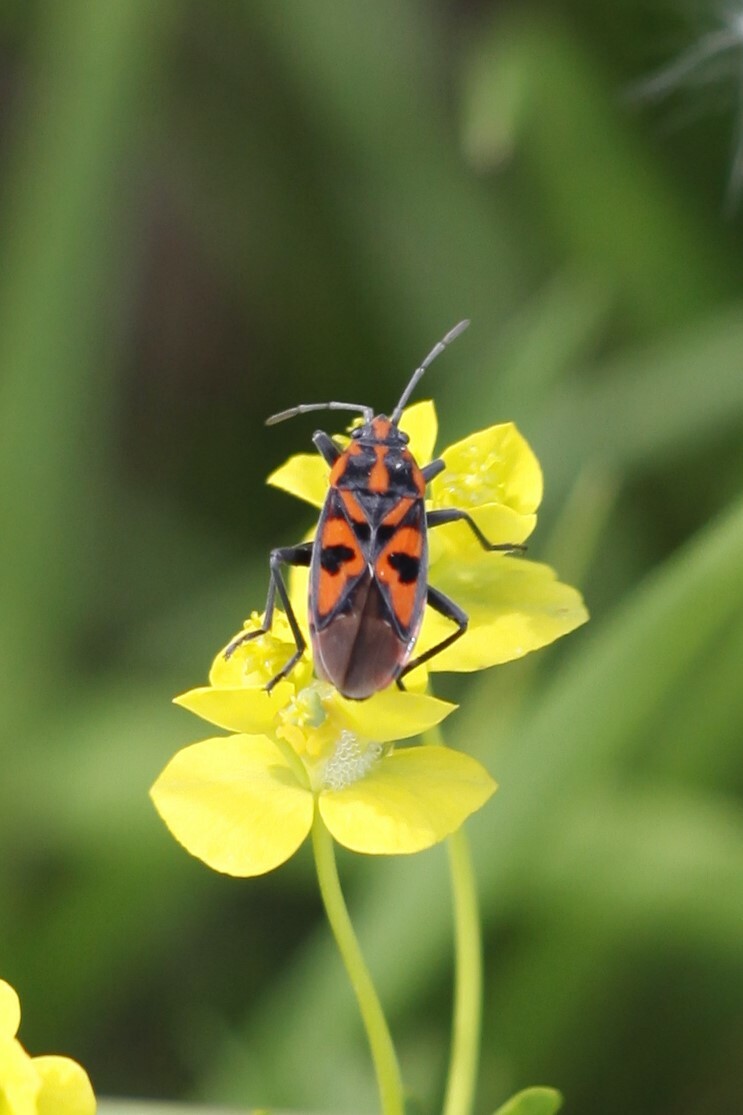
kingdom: Animalia
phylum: Arthropoda
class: Insecta
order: Hemiptera
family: Lygaeidae
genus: Spilostethus
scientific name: Spilostethus saxatilis
